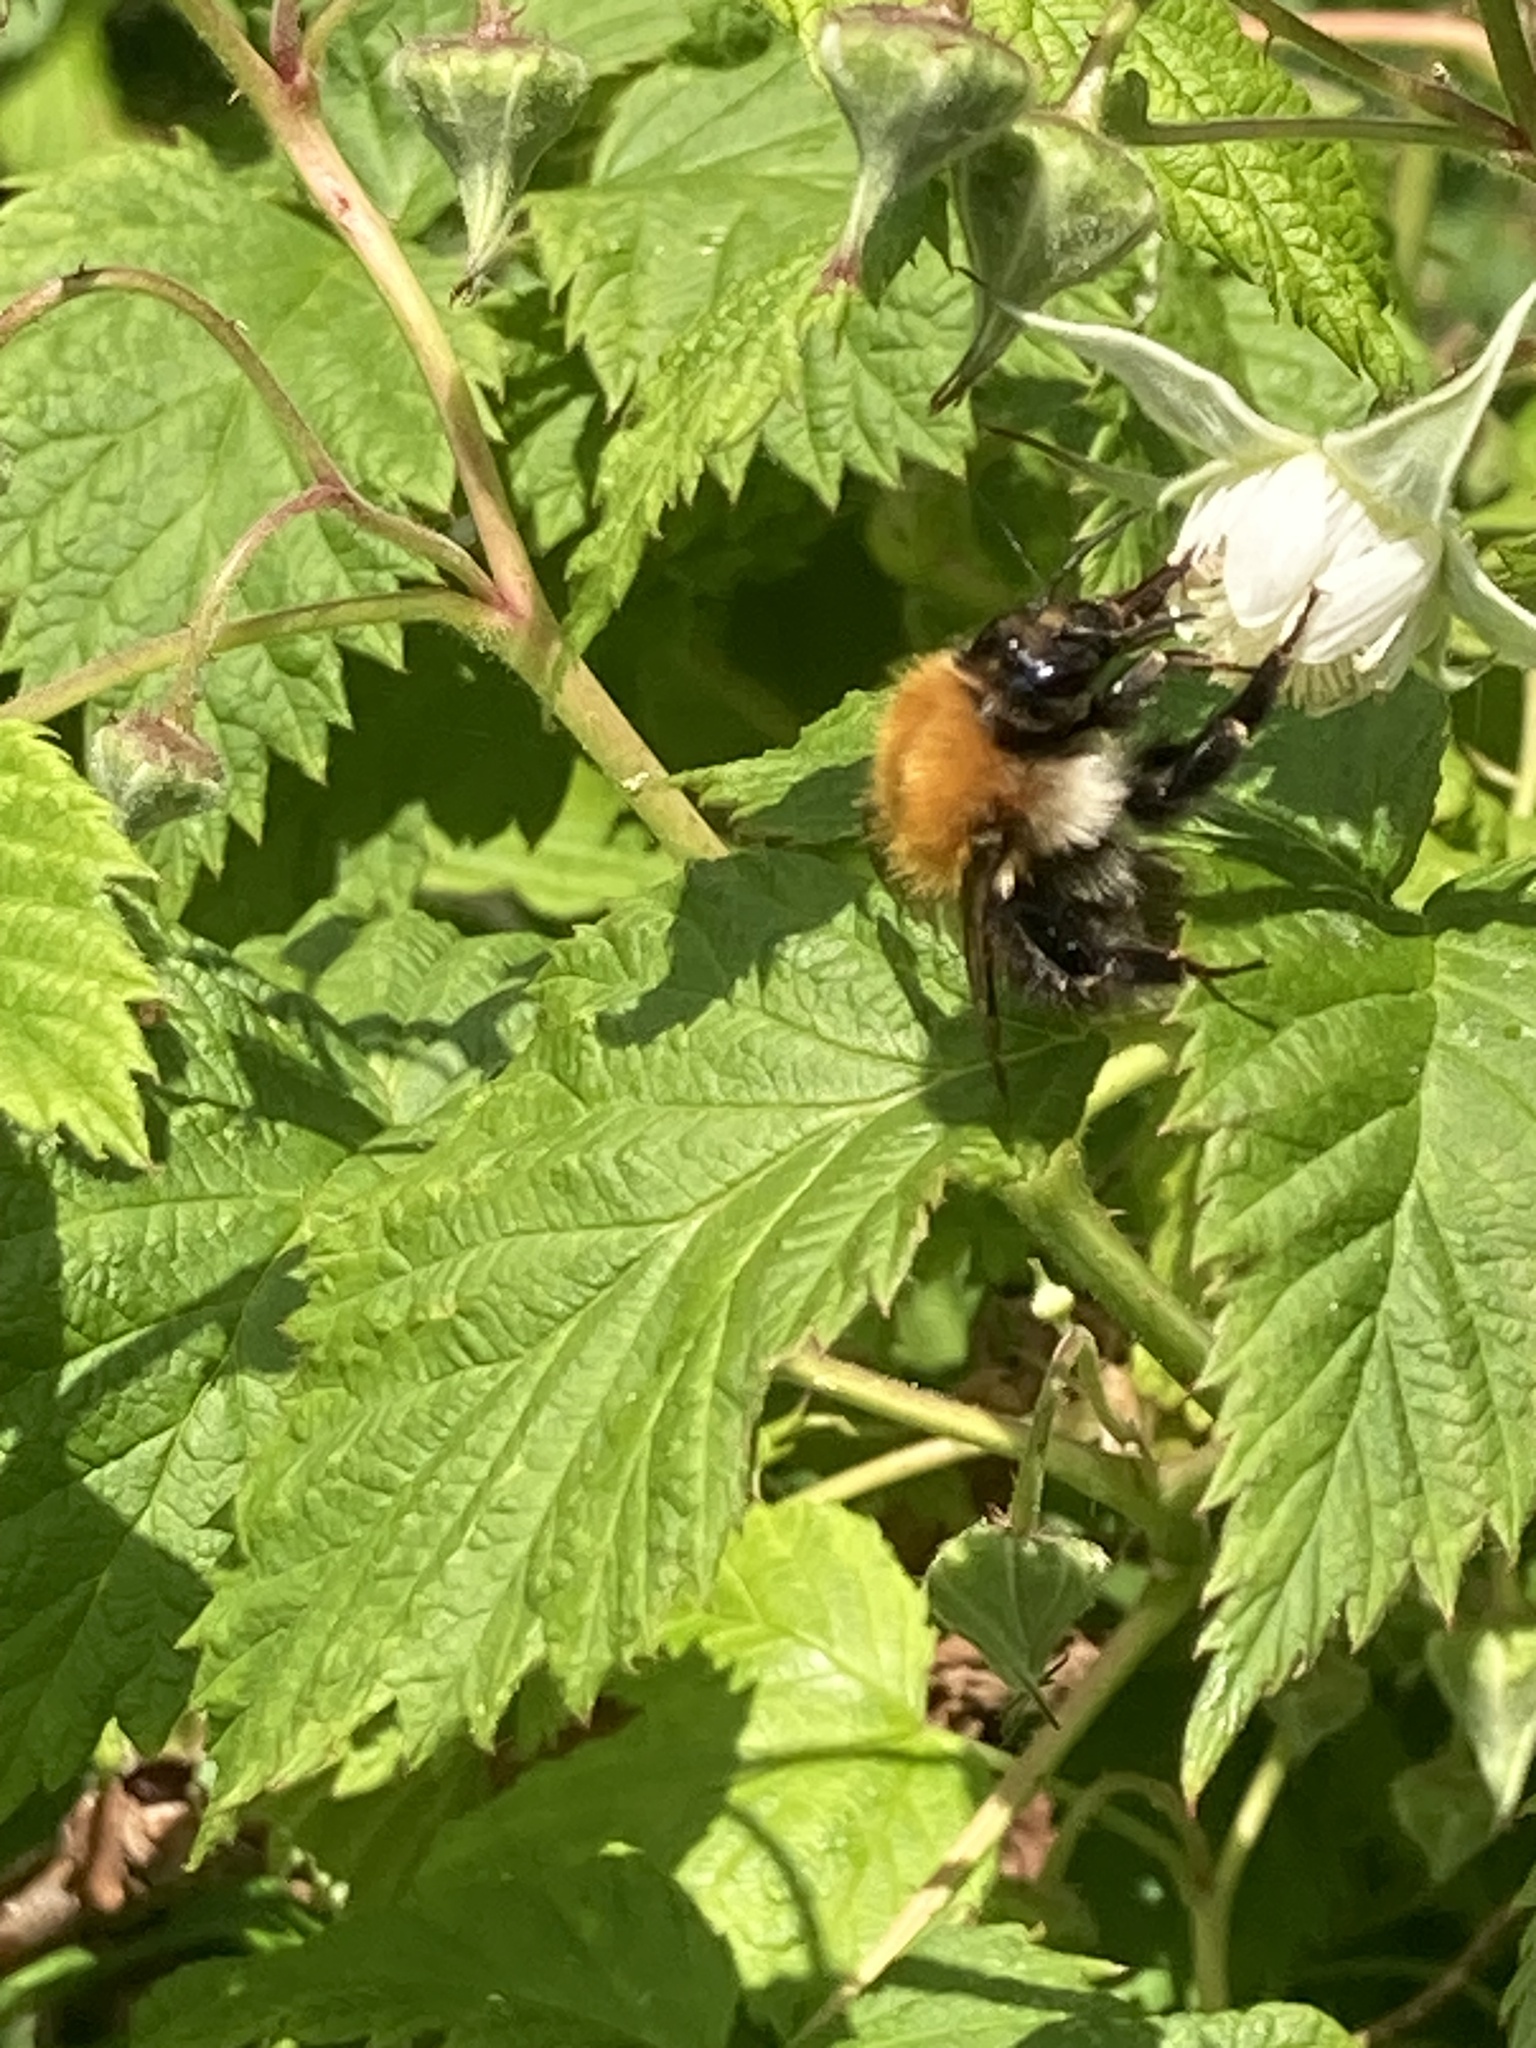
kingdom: Animalia
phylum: Arthropoda
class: Insecta
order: Hymenoptera
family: Apidae
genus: Bombus
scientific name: Bombus pascuorum
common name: Common carder bee
